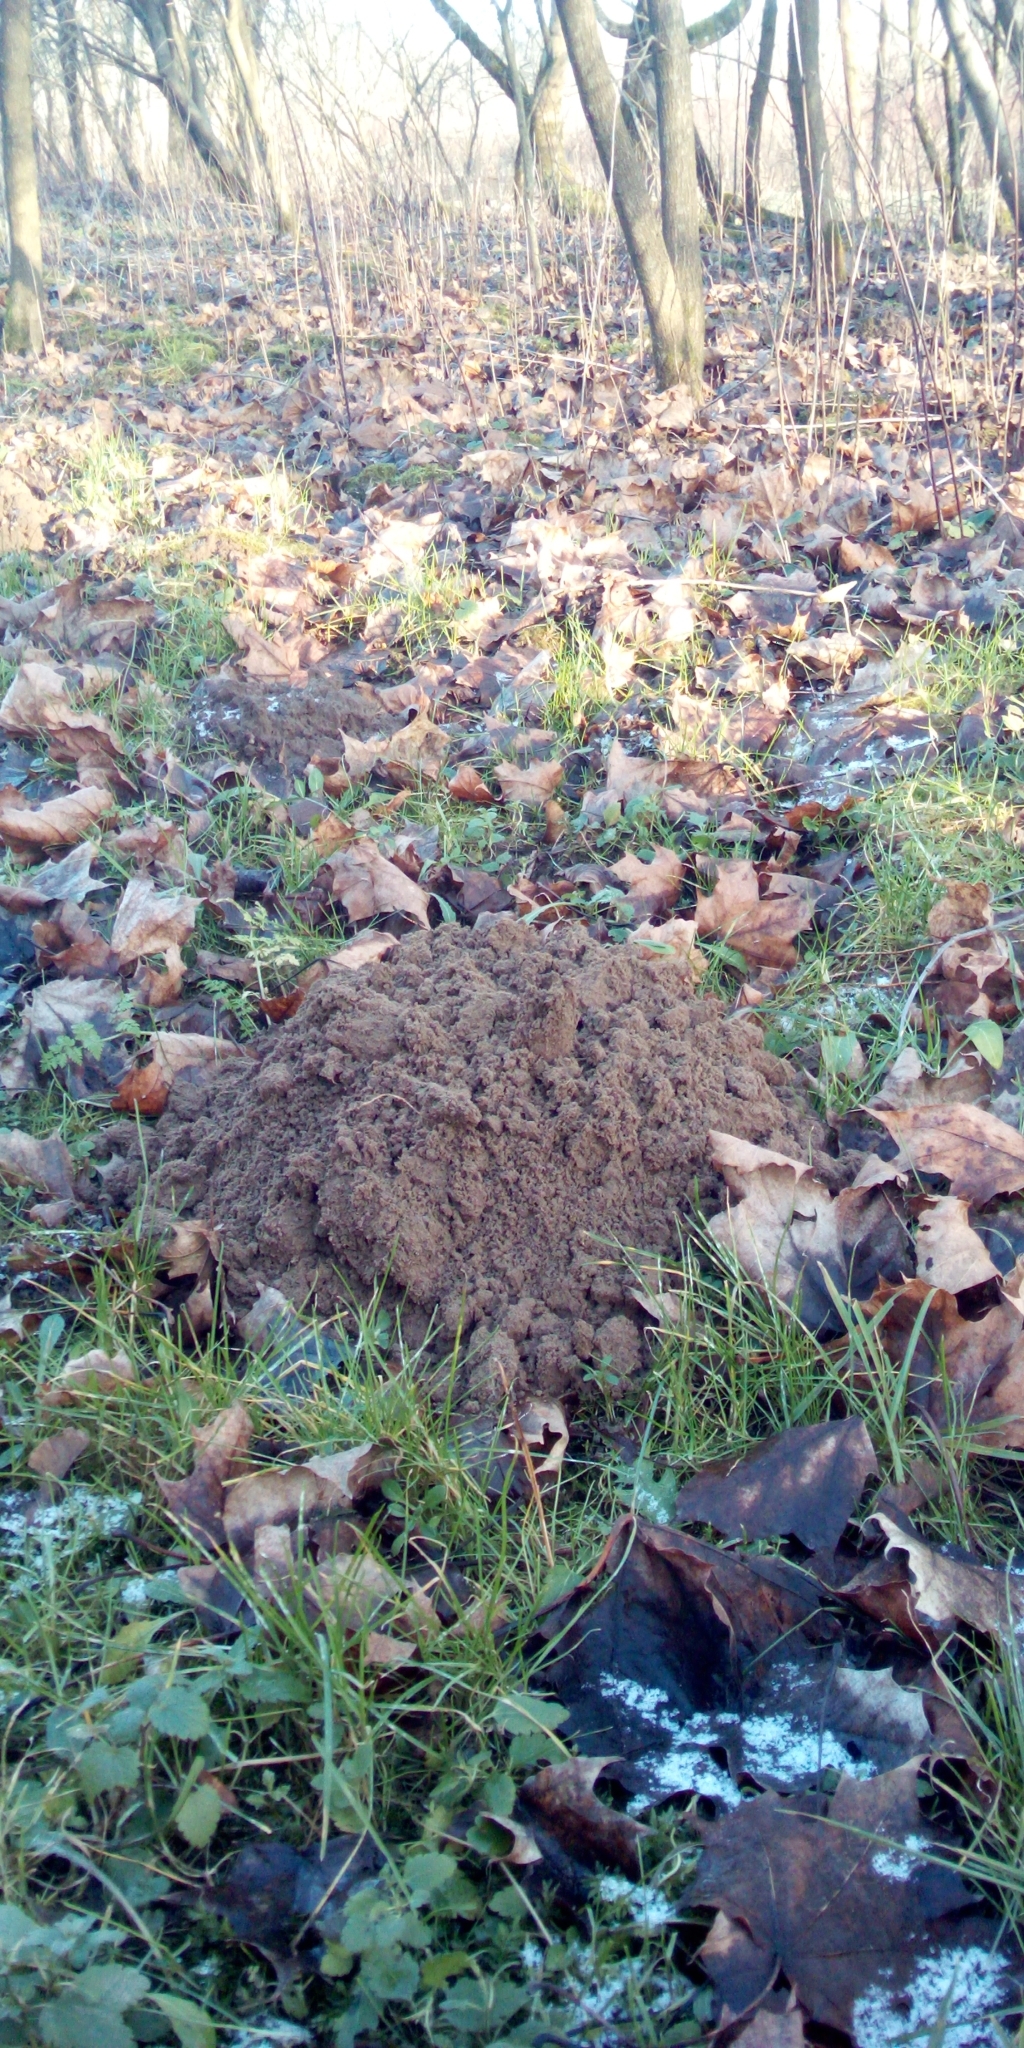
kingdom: Animalia
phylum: Chordata
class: Mammalia
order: Soricomorpha
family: Talpidae
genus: Talpa
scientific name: Talpa europaea
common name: European mole
